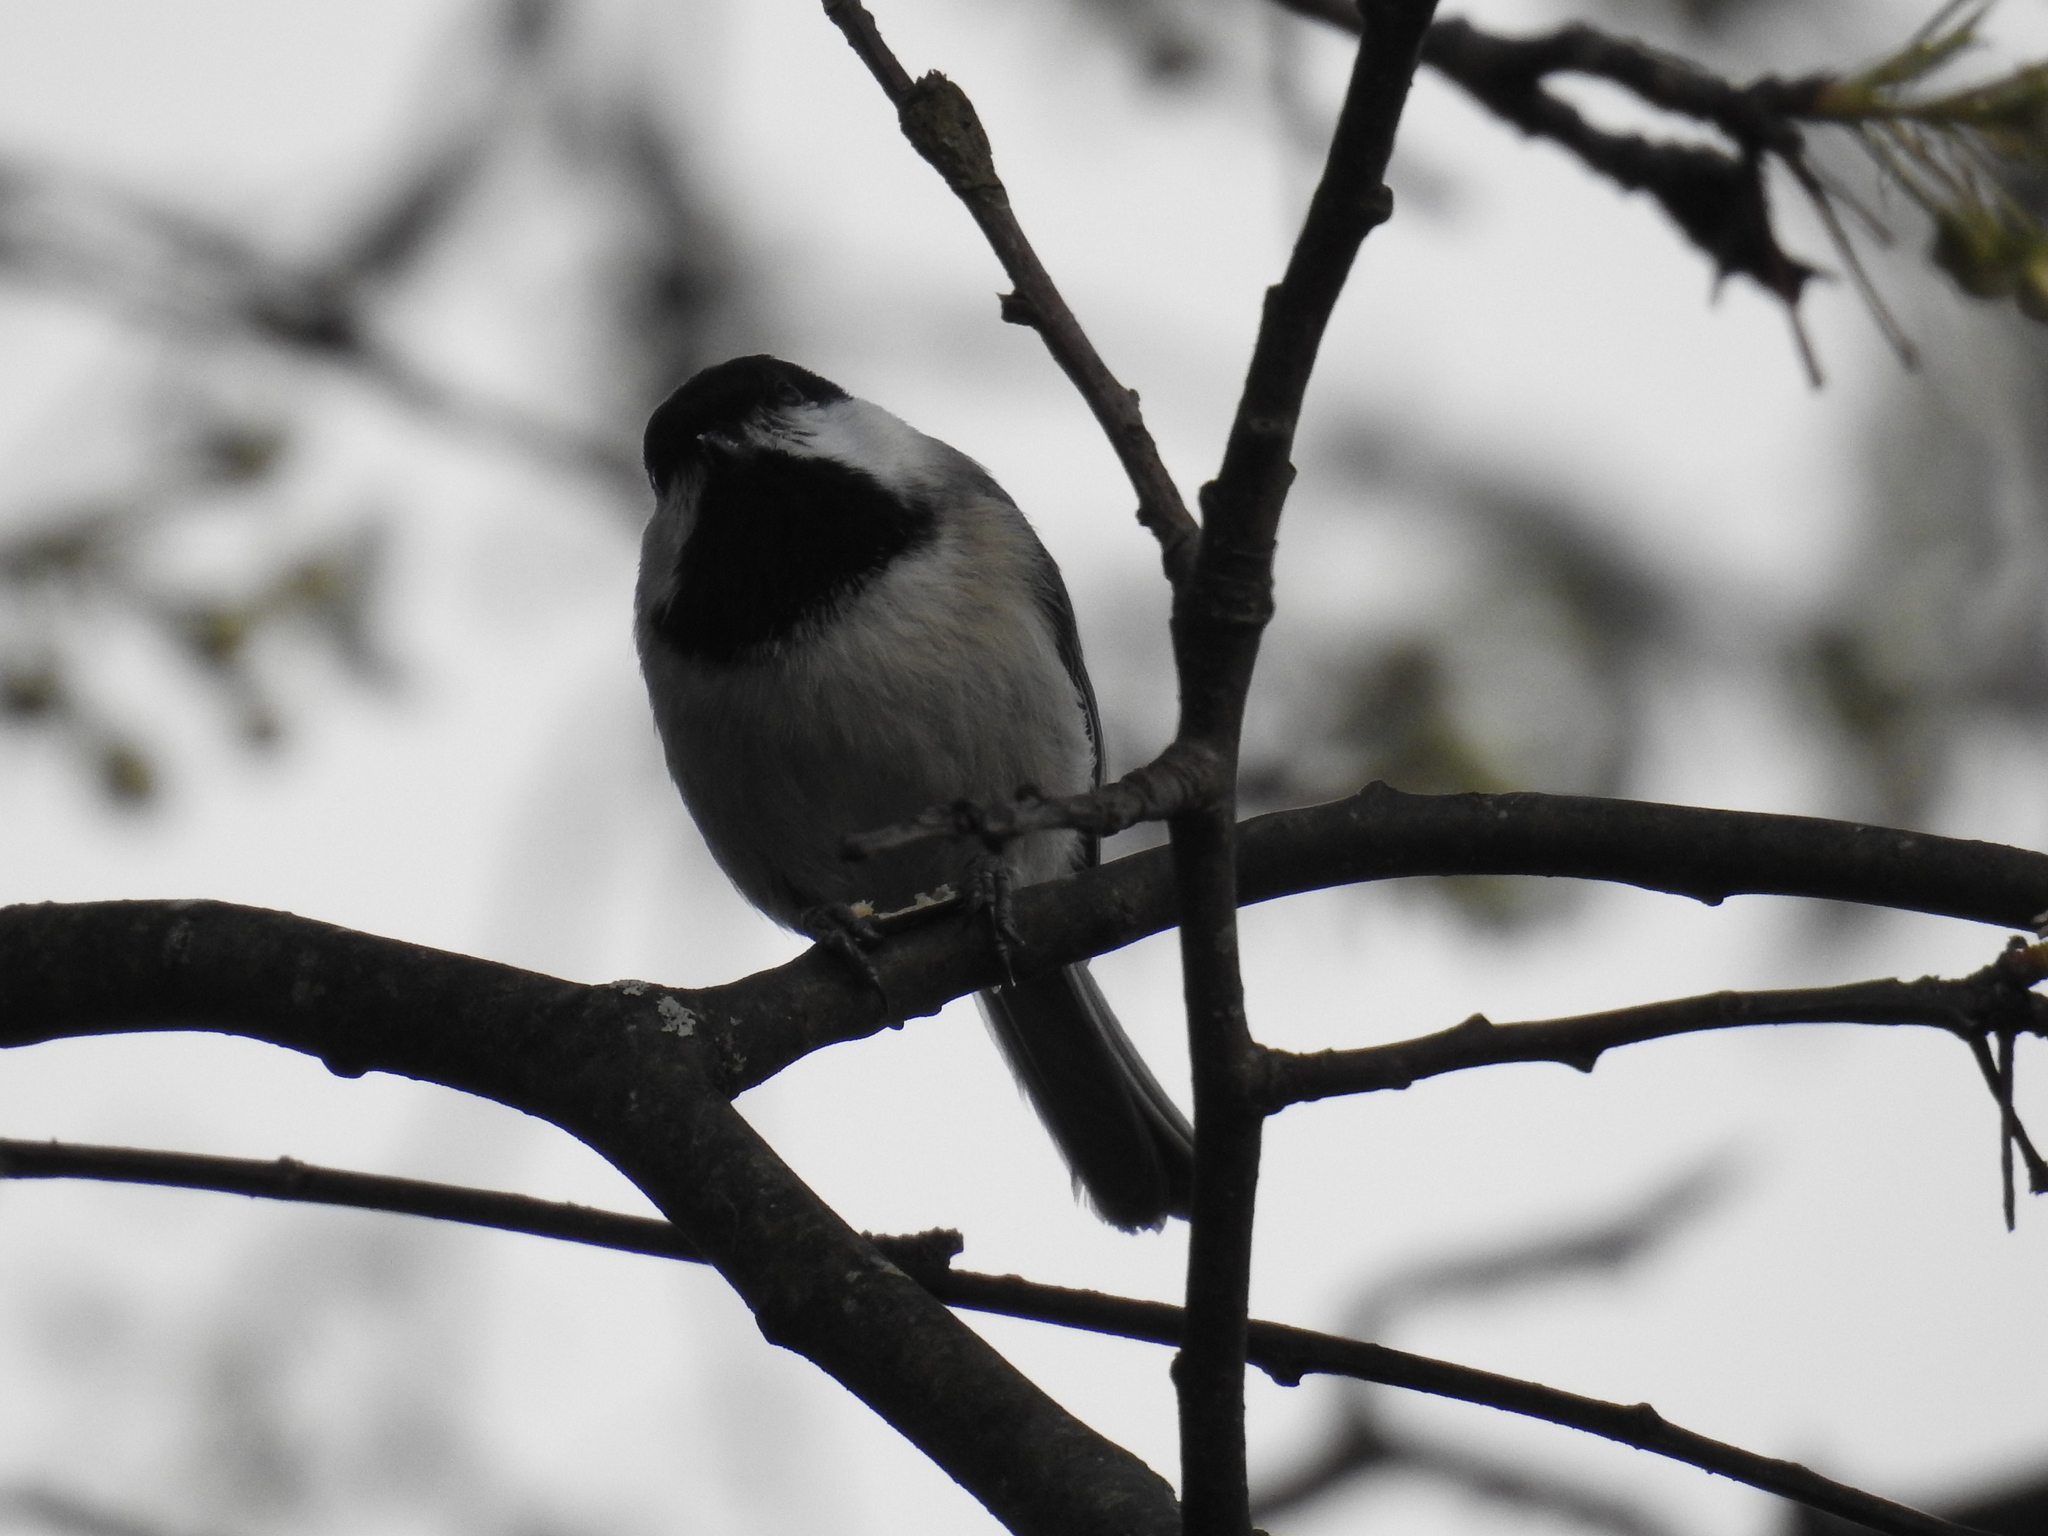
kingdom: Animalia
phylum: Chordata
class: Aves
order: Passeriformes
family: Paridae
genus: Poecile
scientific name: Poecile carolinensis
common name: Carolina chickadee
